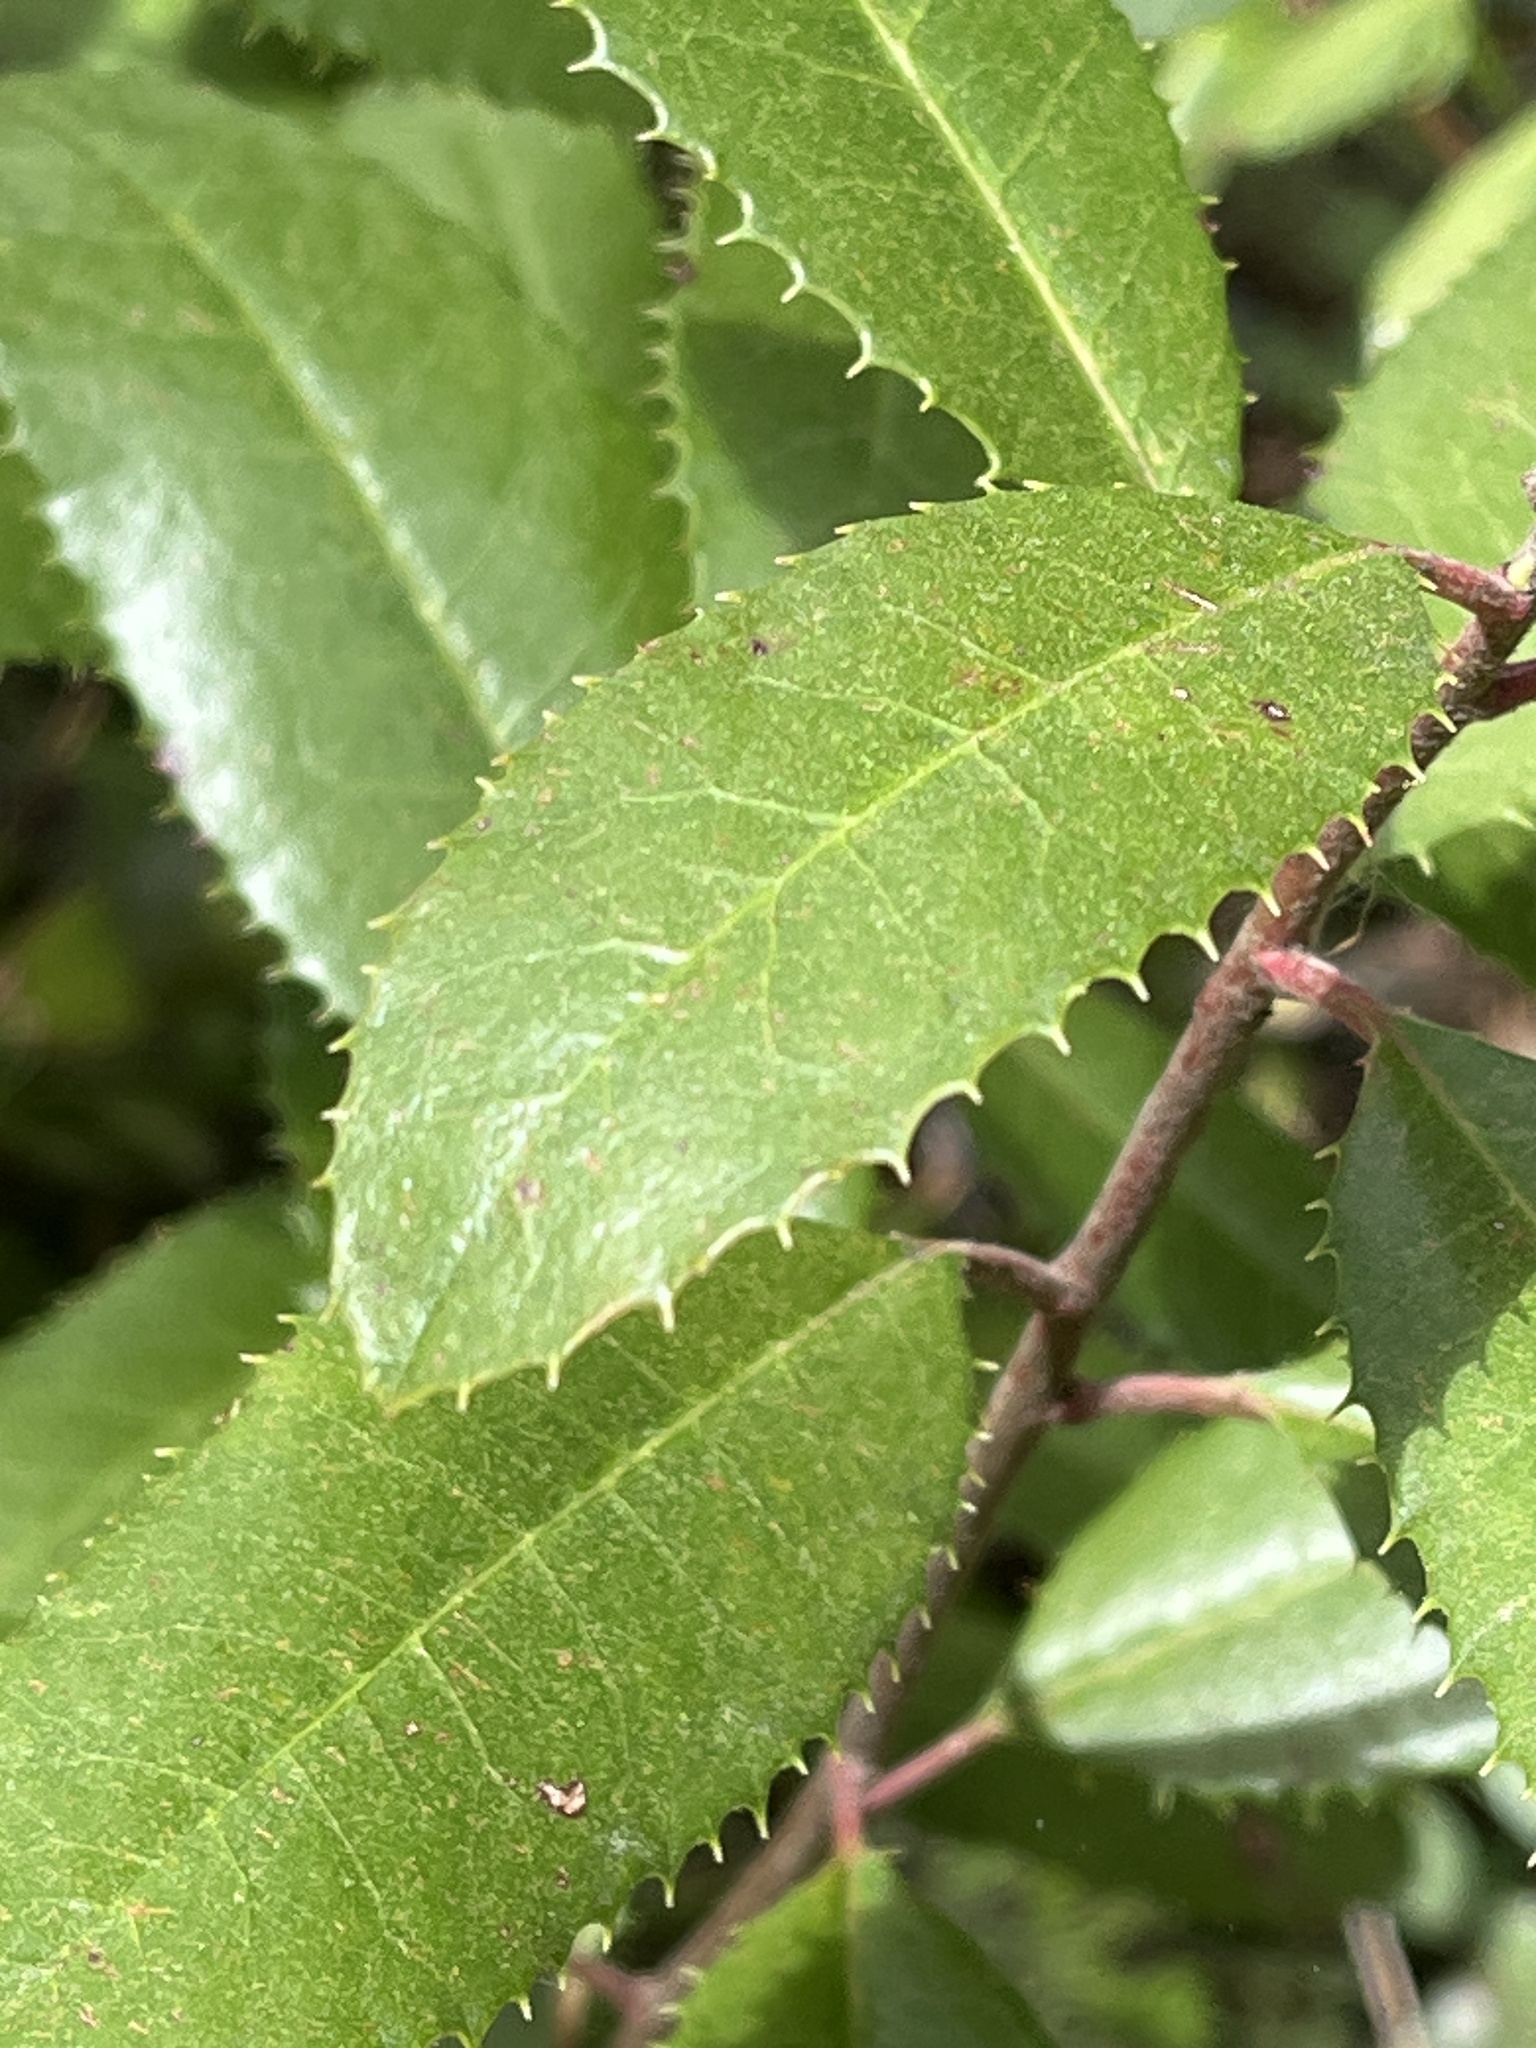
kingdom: Plantae
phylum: Tracheophyta
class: Magnoliopsida
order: Rosales
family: Rosaceae
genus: Heteromeles
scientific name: Heteromeles arbutifolia
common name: California-holly
